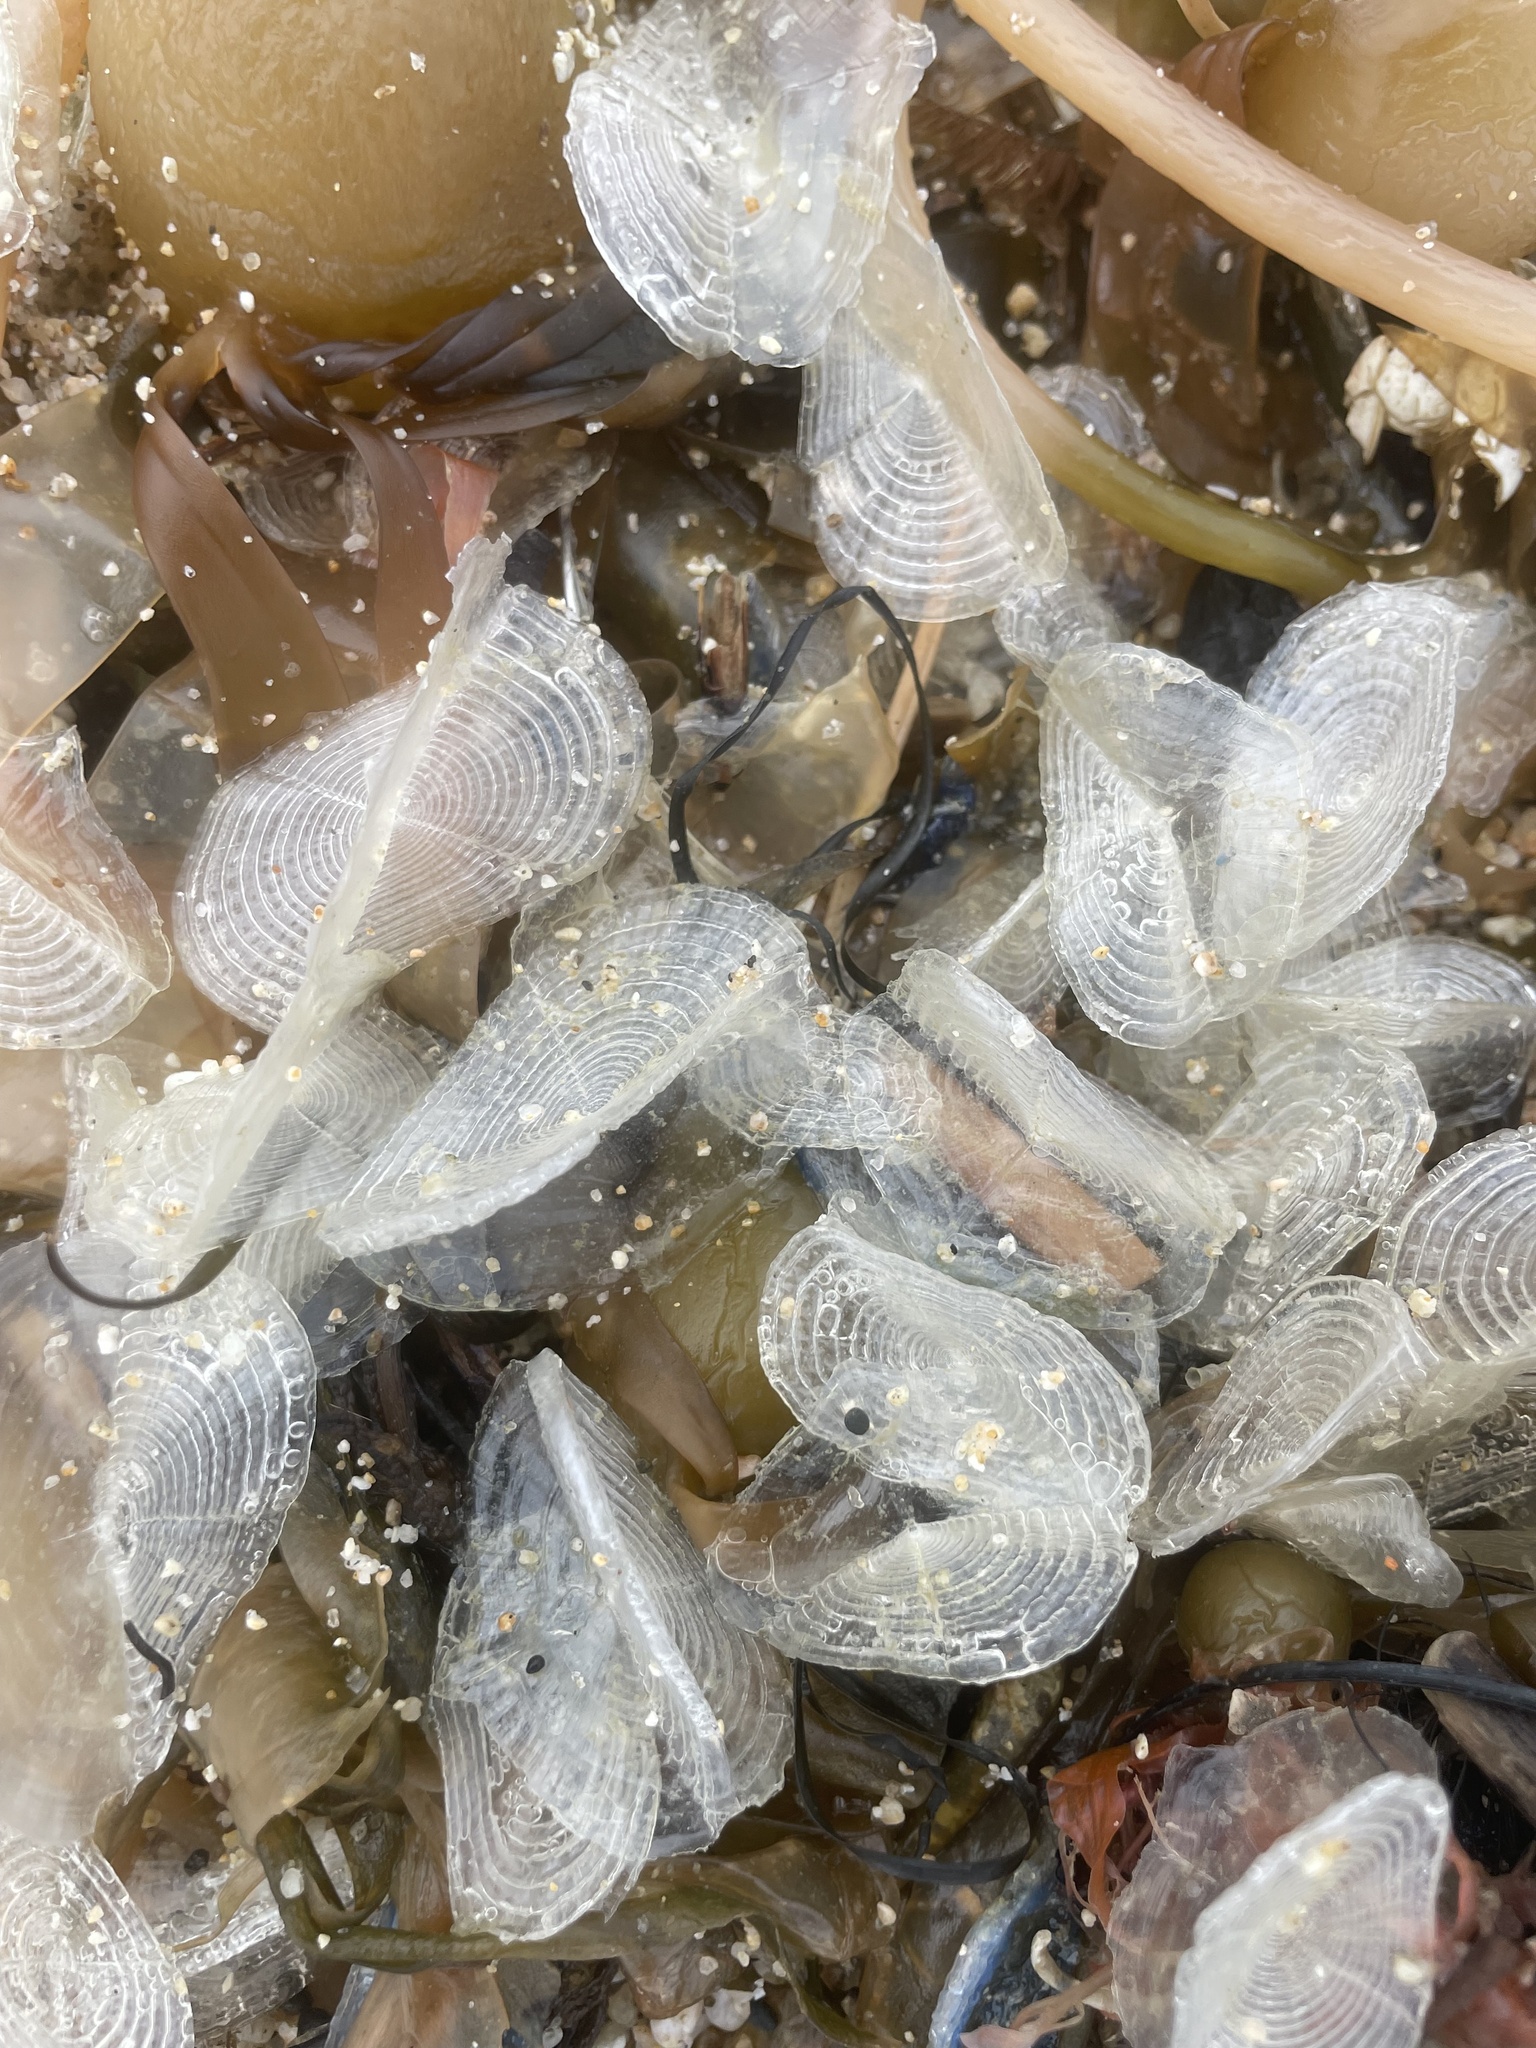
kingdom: Animalia
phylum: Cnidaria
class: Hydrozoa
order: Anthoathecata
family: Porpitidae
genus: Velella
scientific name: Velella velella
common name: By-the-wind-sailor
